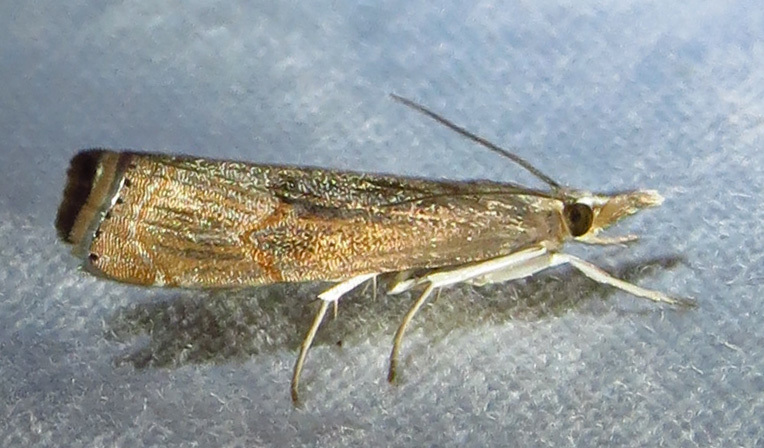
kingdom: Animalia
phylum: Arthropoda
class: Insecta
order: Lepidoptera
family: Crambidae
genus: Parapediasia
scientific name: Parapediasia teterellus
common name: Bluegrass webworm moth
